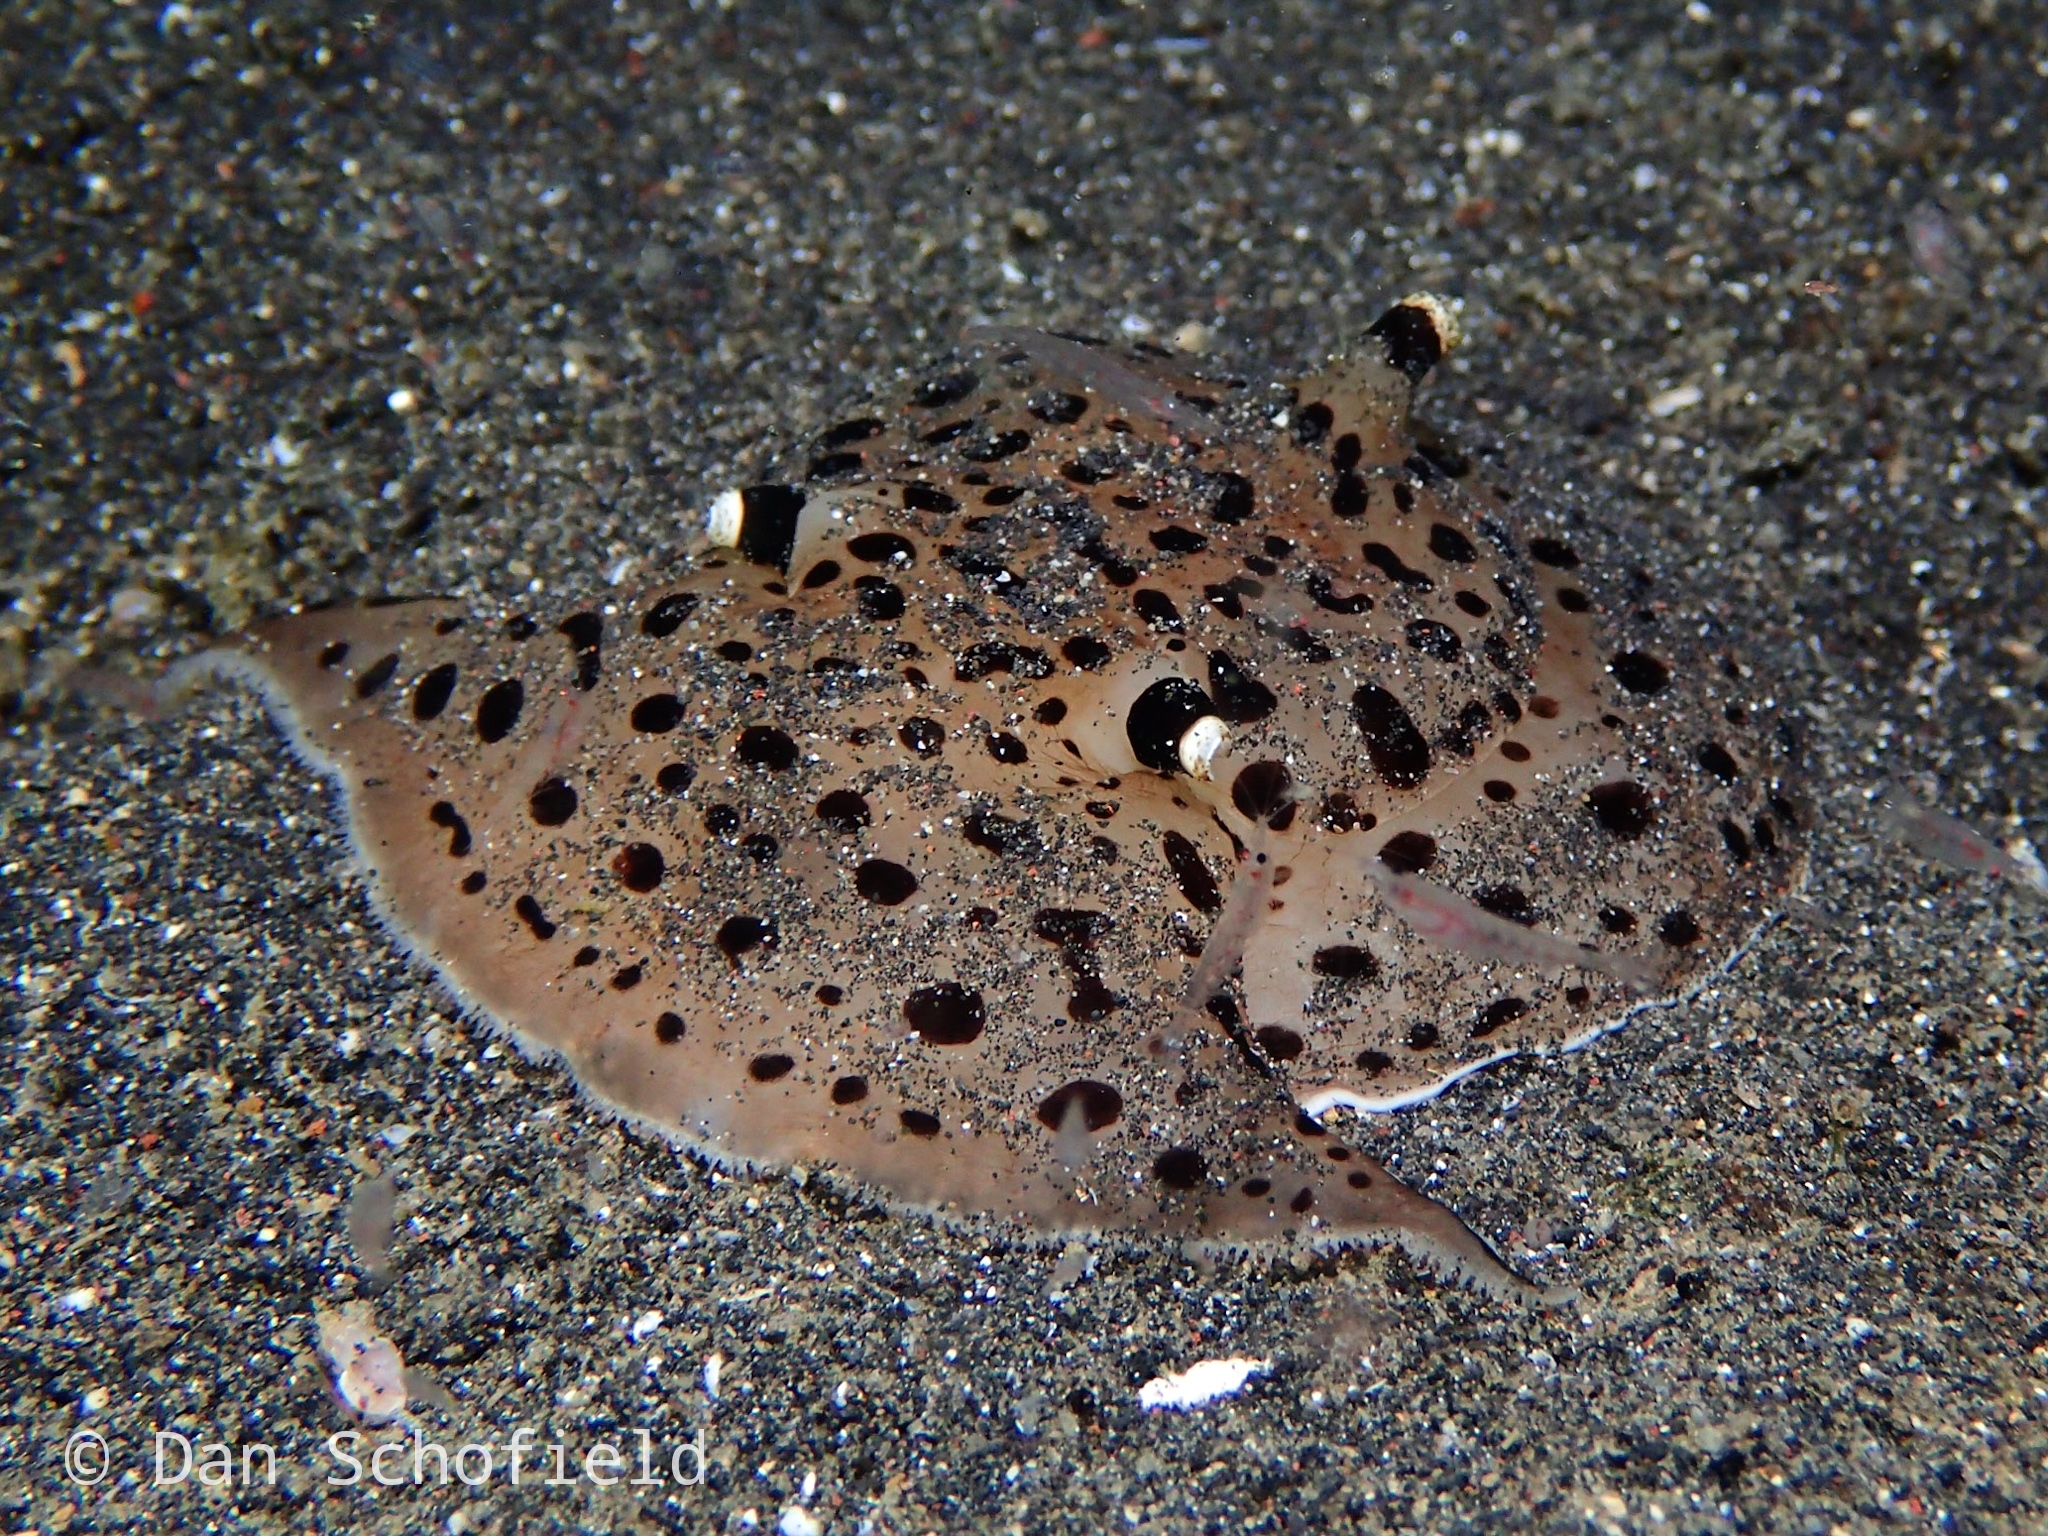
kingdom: Animalia
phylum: Mollusca
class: Gastropoda
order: Pleurobranchida
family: Pleurobranchaeidae
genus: Euselenops
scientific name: Euselenops luniceps
